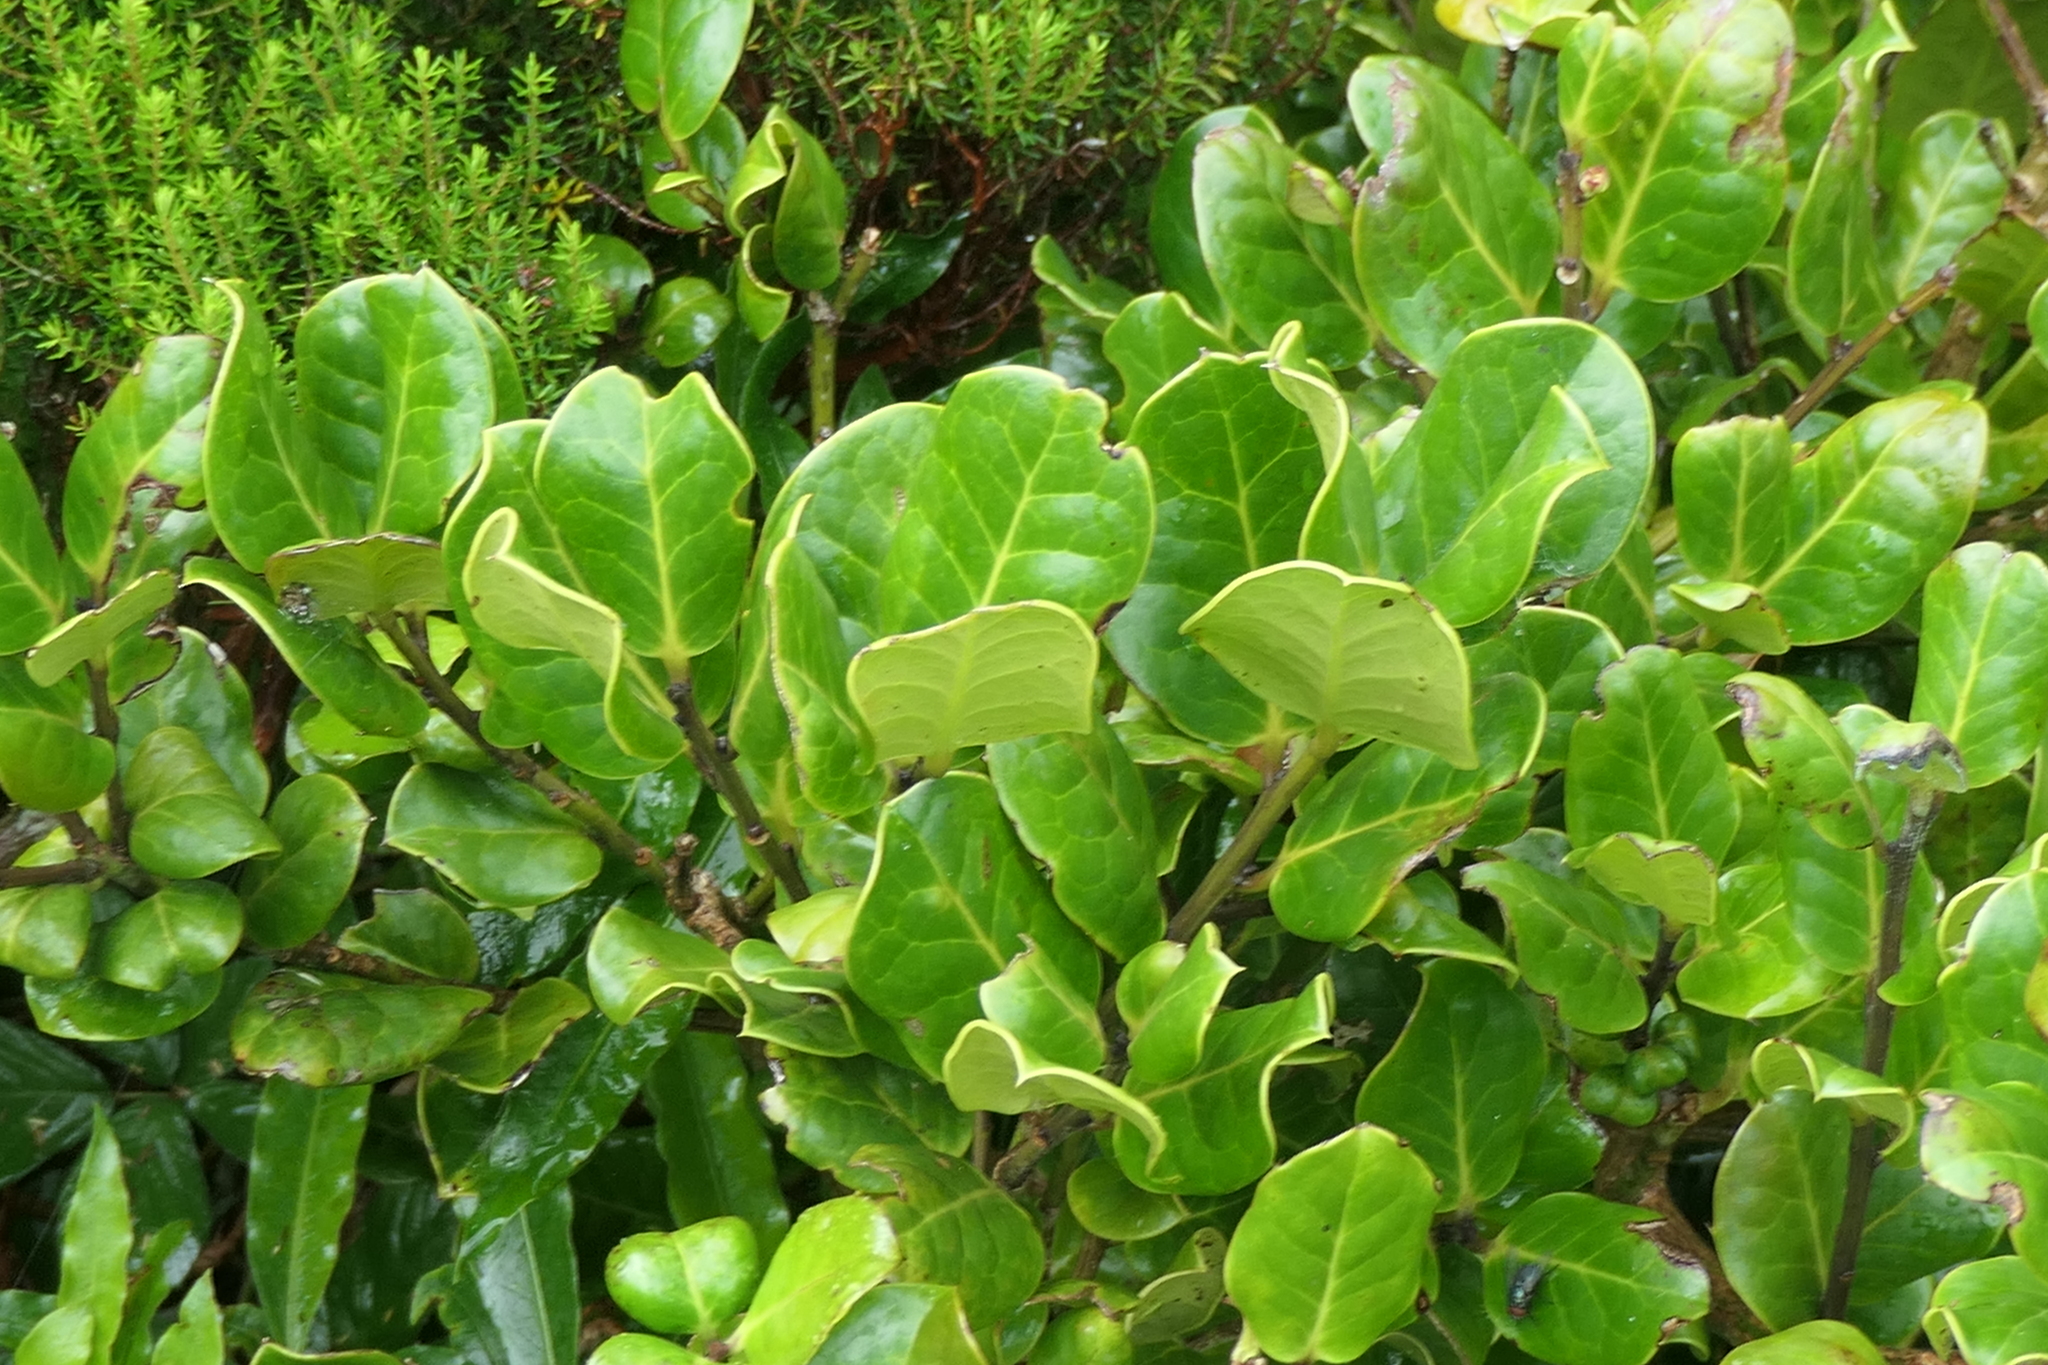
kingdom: Plantae
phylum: Tracheophyta
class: Magnoliopsida
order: Aquifoliales
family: Aquifoliaceae
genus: Ilex
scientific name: Ilex perado
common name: Madeira holly
